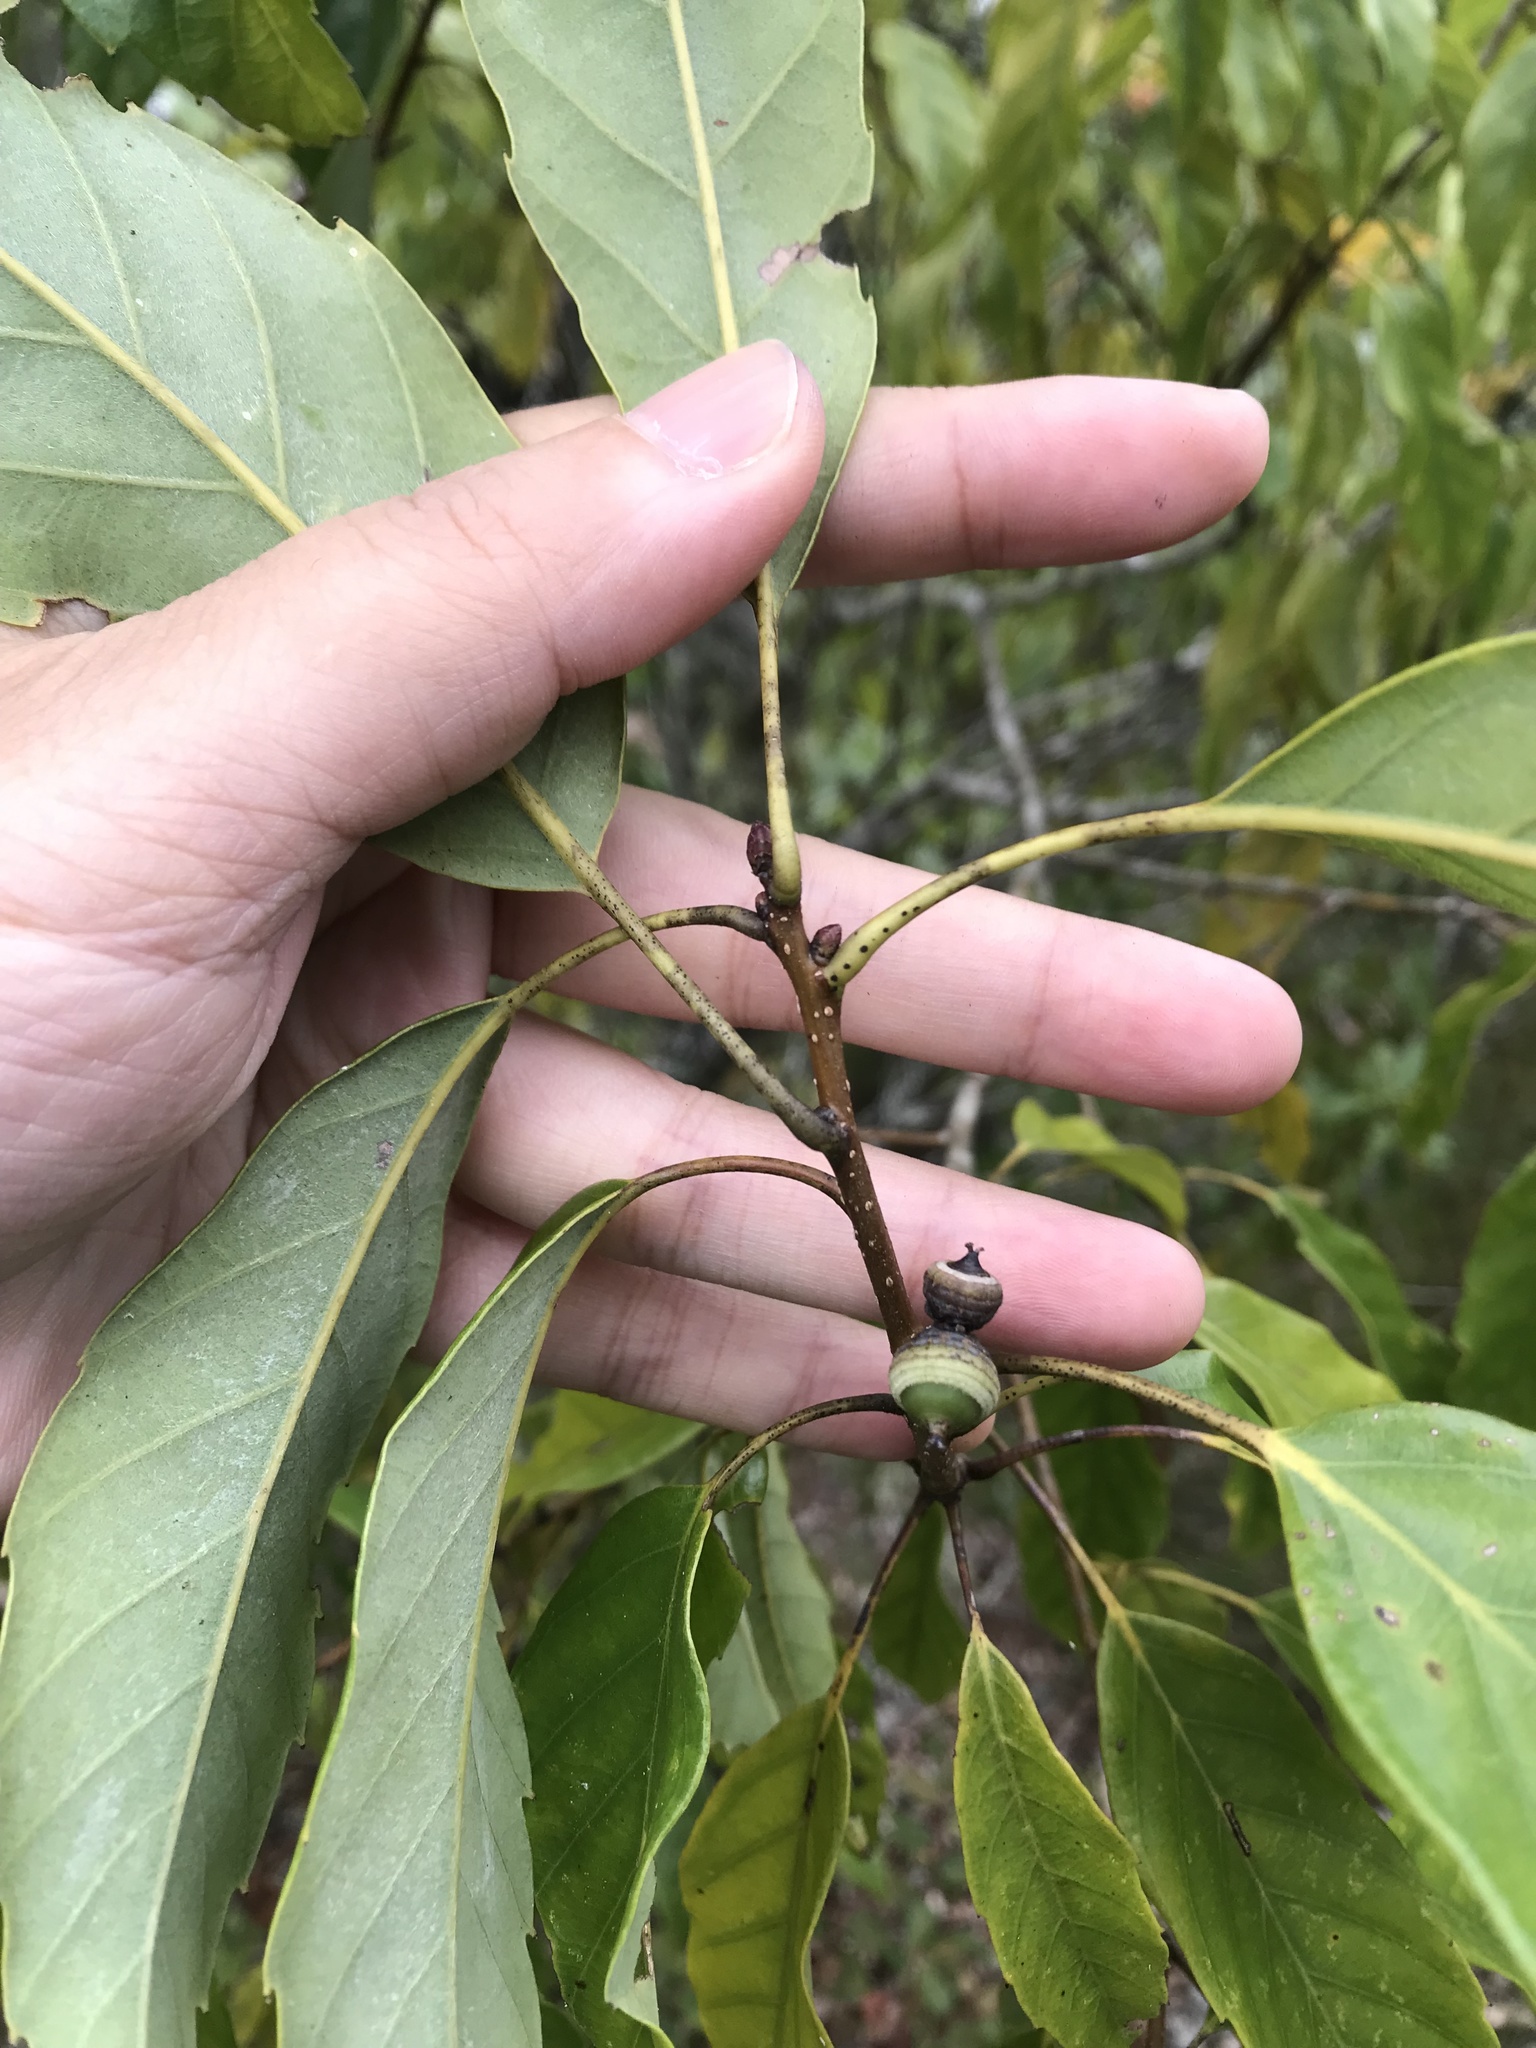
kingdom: Plantae
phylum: Tracheophyta
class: Magnoliopsida
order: Fagales
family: Fagaceae
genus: Quercus
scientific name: Quercus glauca
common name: Ring-cup oak
